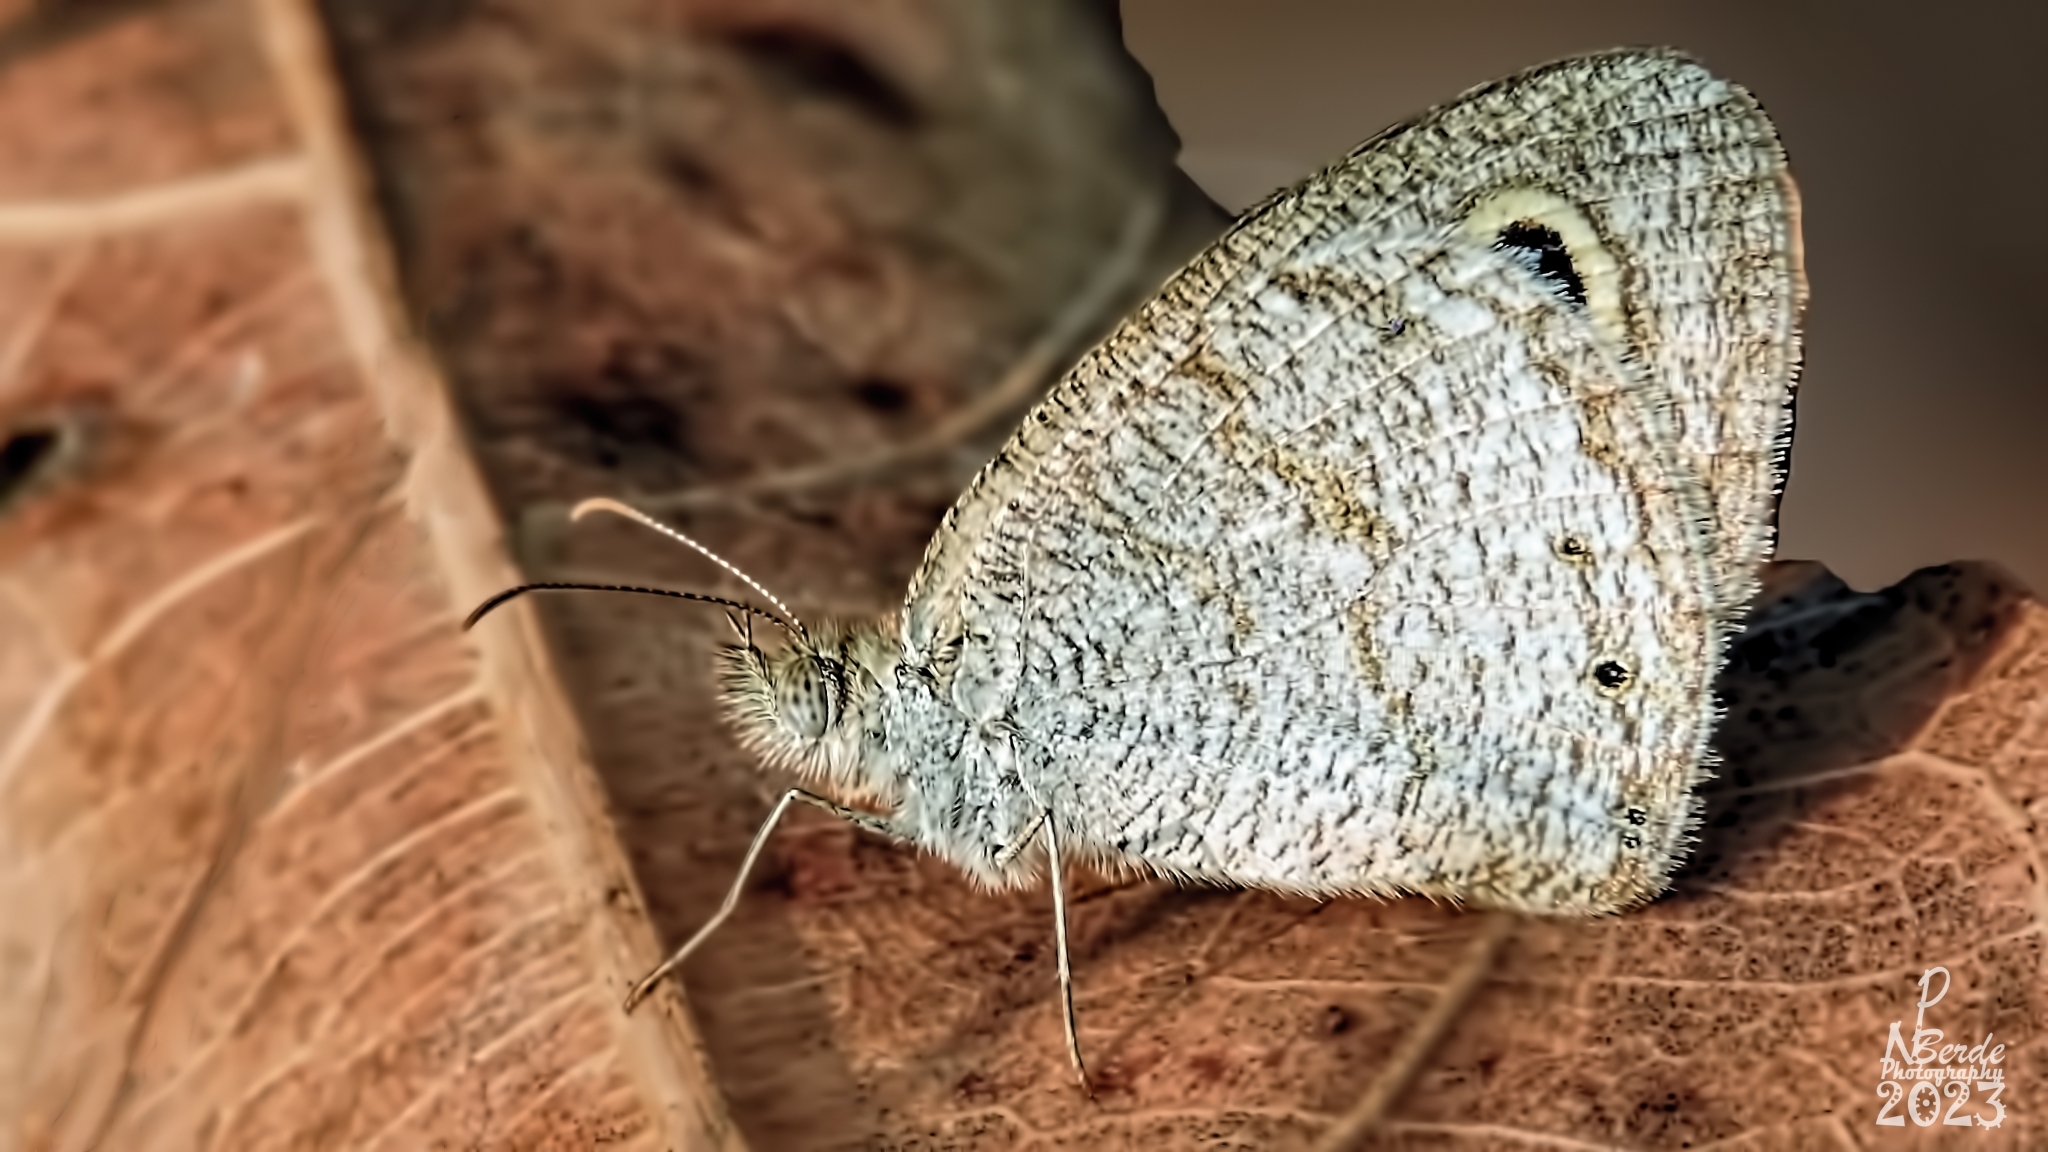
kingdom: Animalia
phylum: Arthropoda
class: Insecta
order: Lepidoptera
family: Nymphalidae
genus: Ypthima
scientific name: Ypthima huebneri
